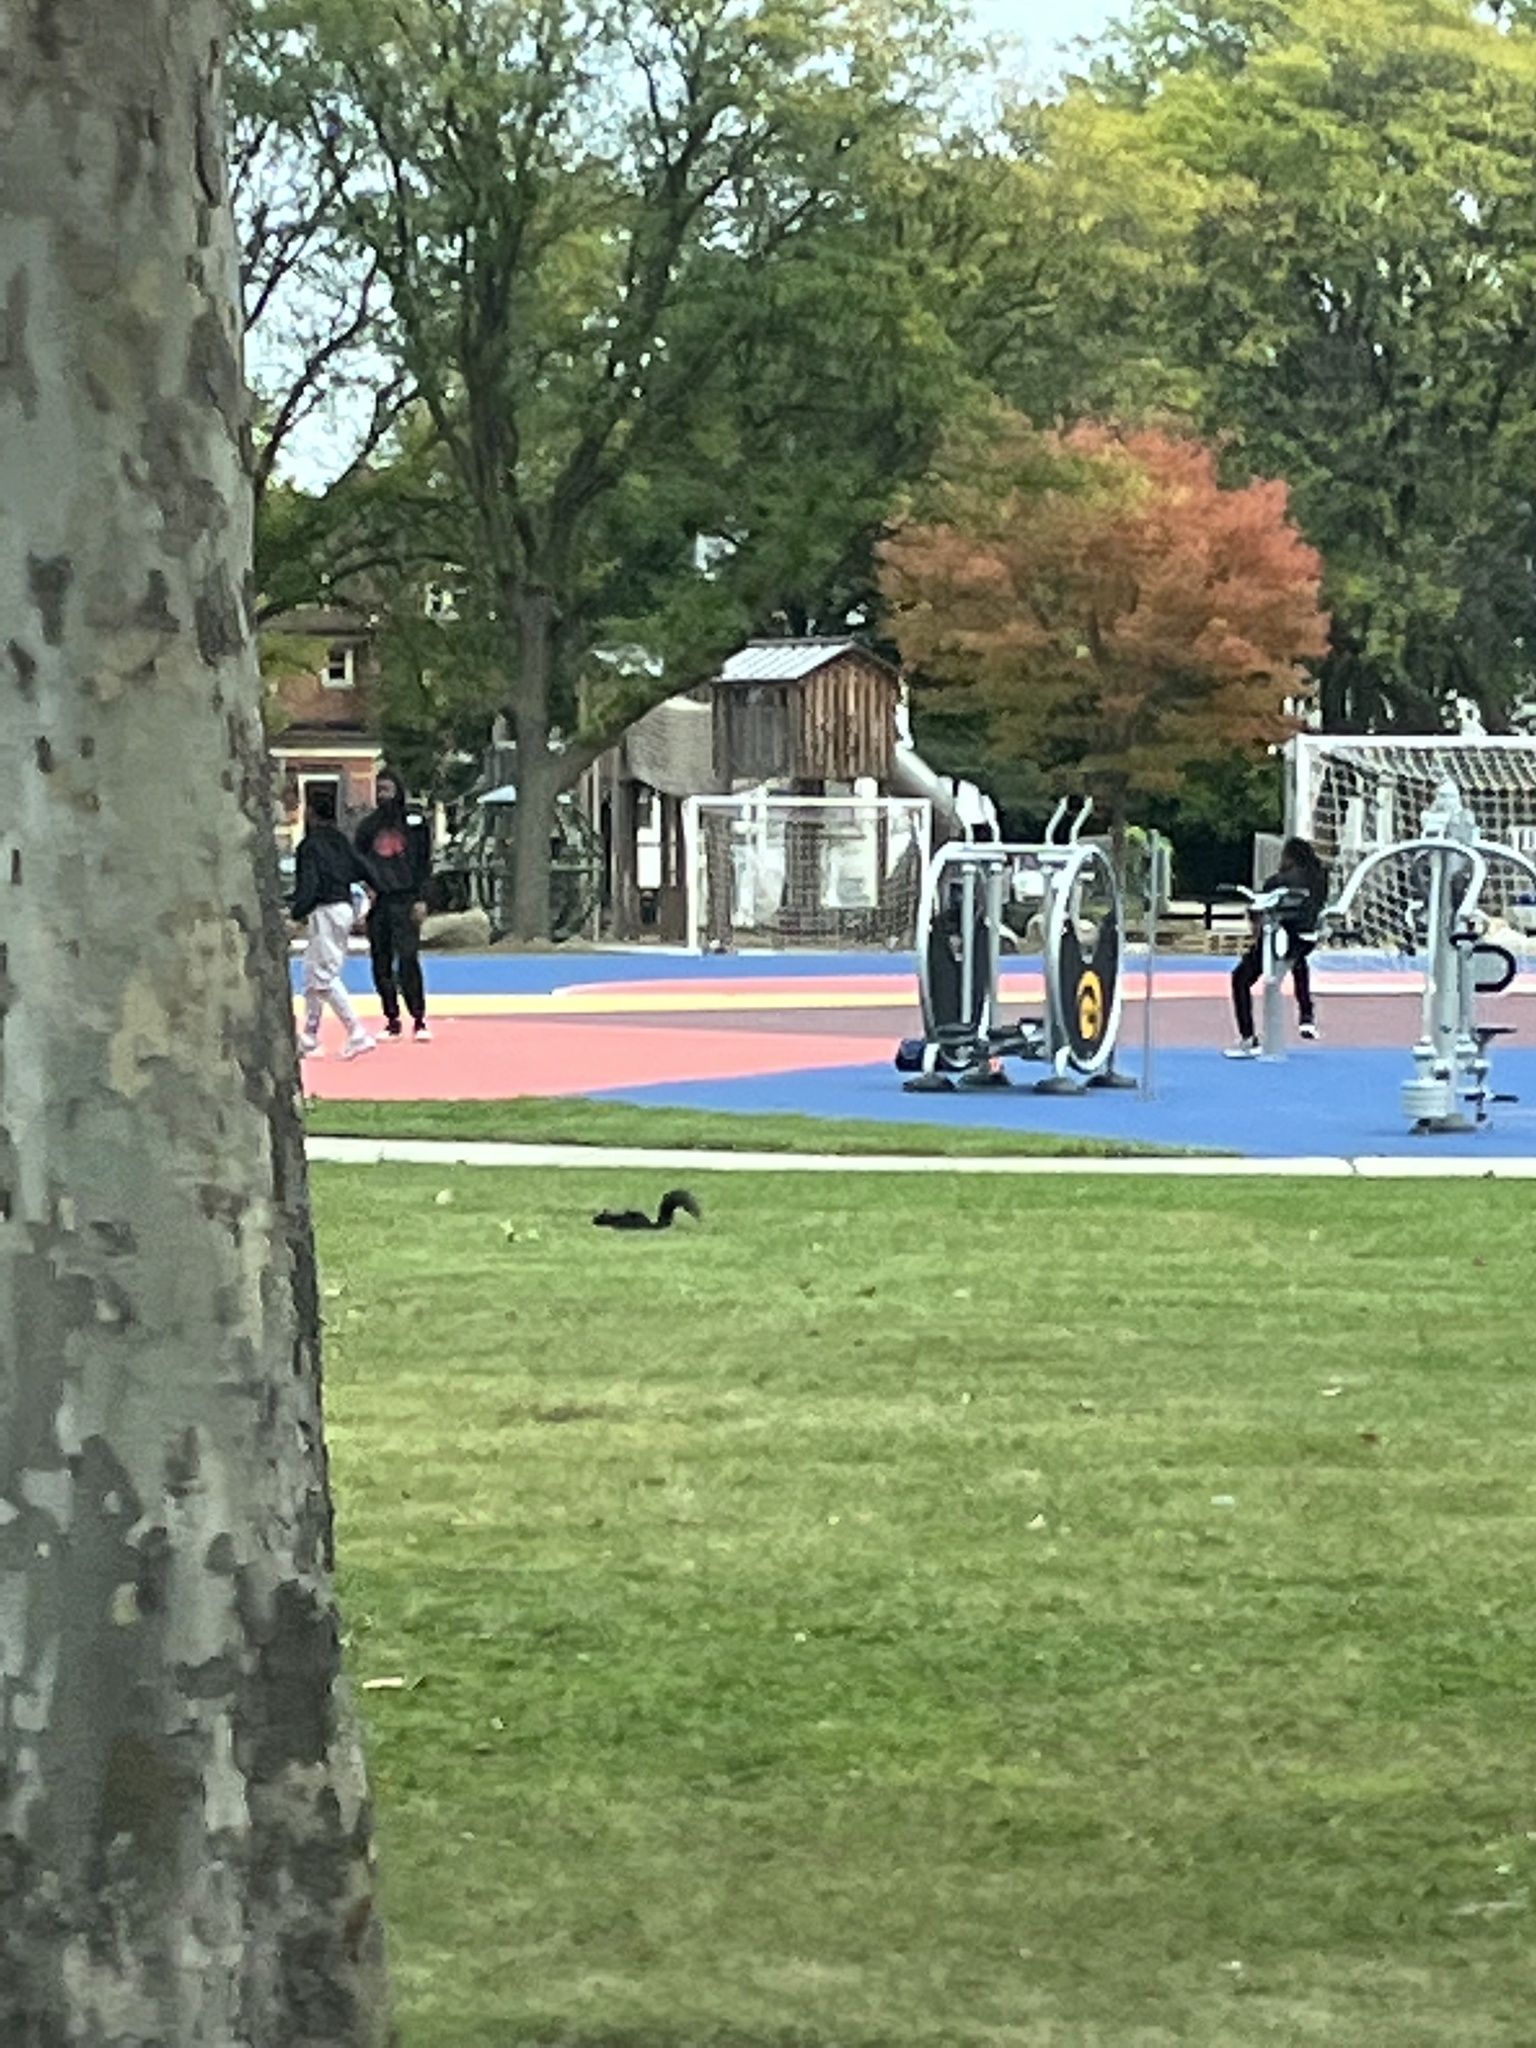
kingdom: Animalia
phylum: Chordata
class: Mammalia
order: Rodentia
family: Sciuridae
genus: Sciurus
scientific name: Sciurus carolinensis
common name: Eastern gray squirrel
